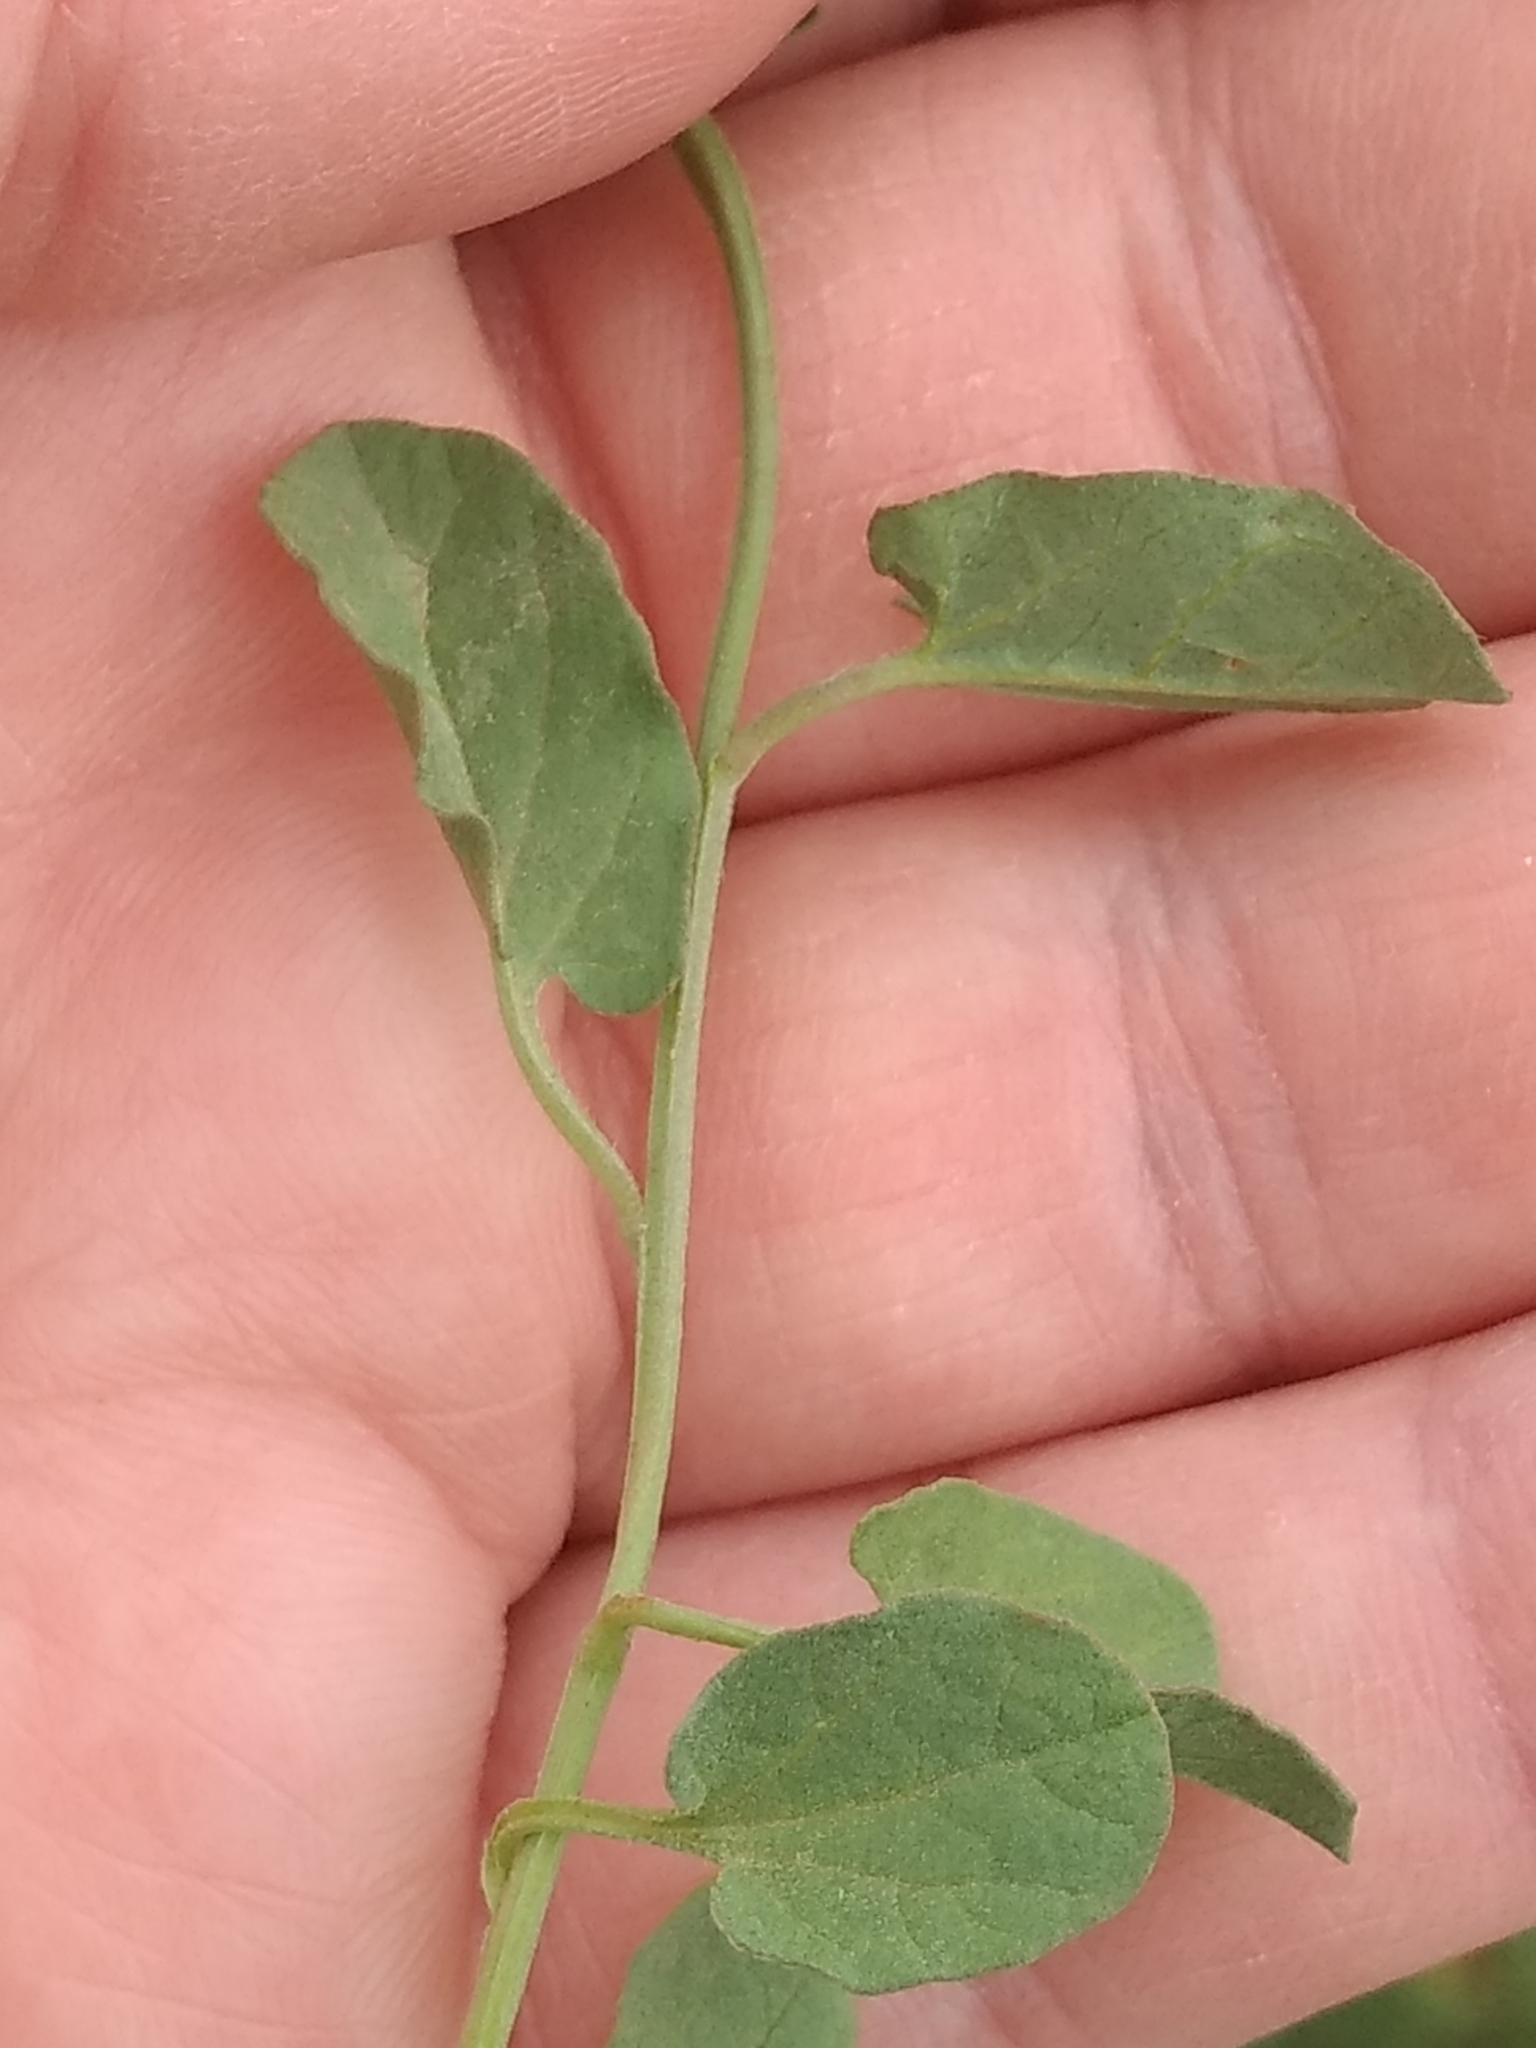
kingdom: Plantae
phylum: Tracheophyta
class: Magnoliopsida
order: Solanales
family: Convolvulaceae
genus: Convolvulus
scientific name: Convolvulus arvensis
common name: Field bindweed
